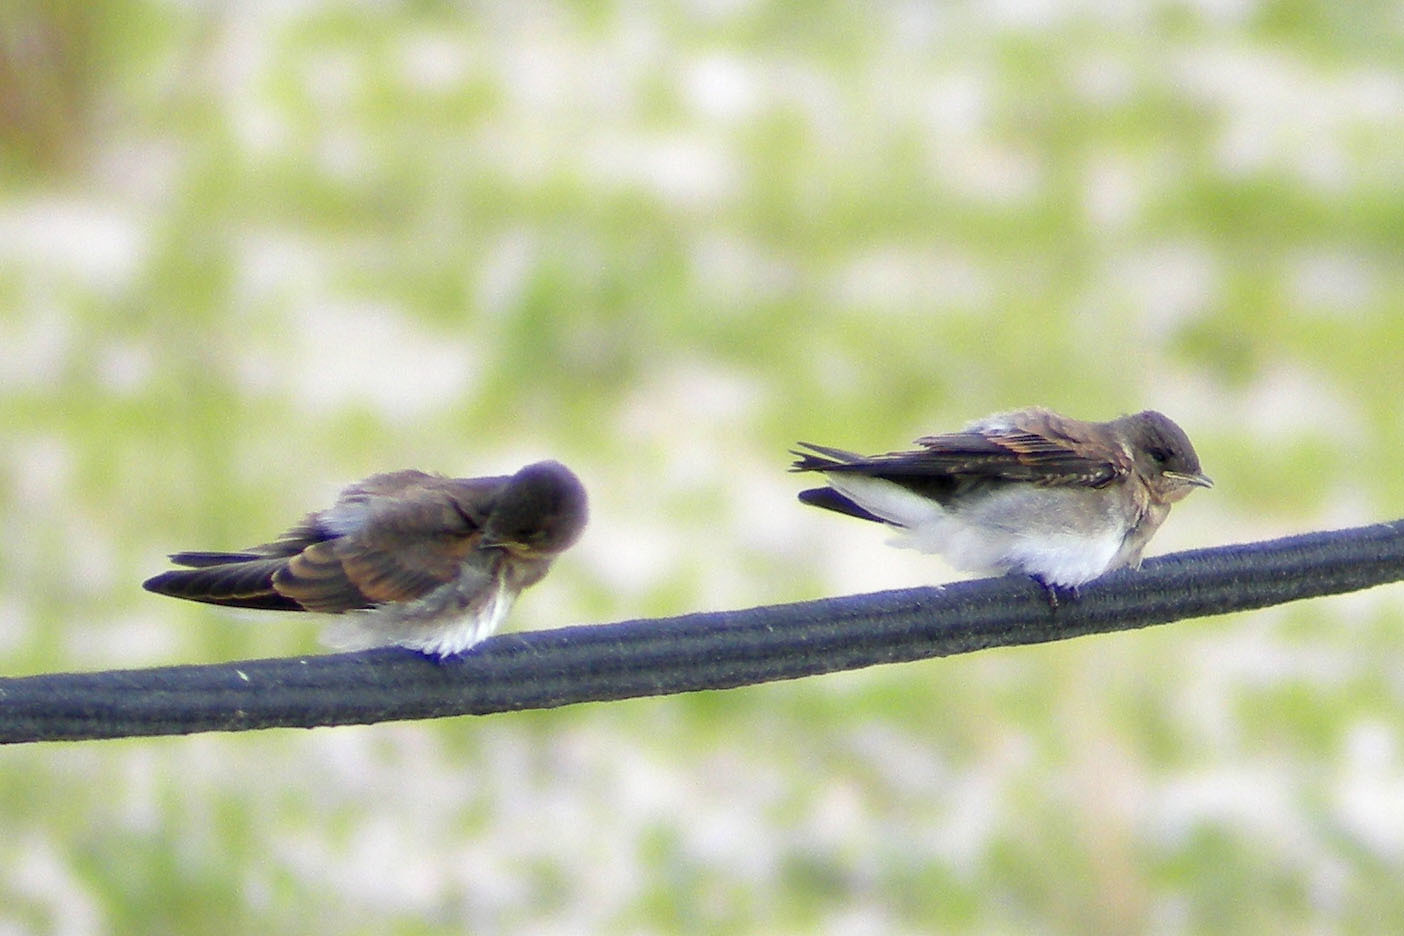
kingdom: Animalia
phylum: Chordata
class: Aves
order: Passeriformes
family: Hirundinidae
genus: Stelgidopteryx
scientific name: Stelgidopteryx serripennis
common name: Northern rough-winged swallow
